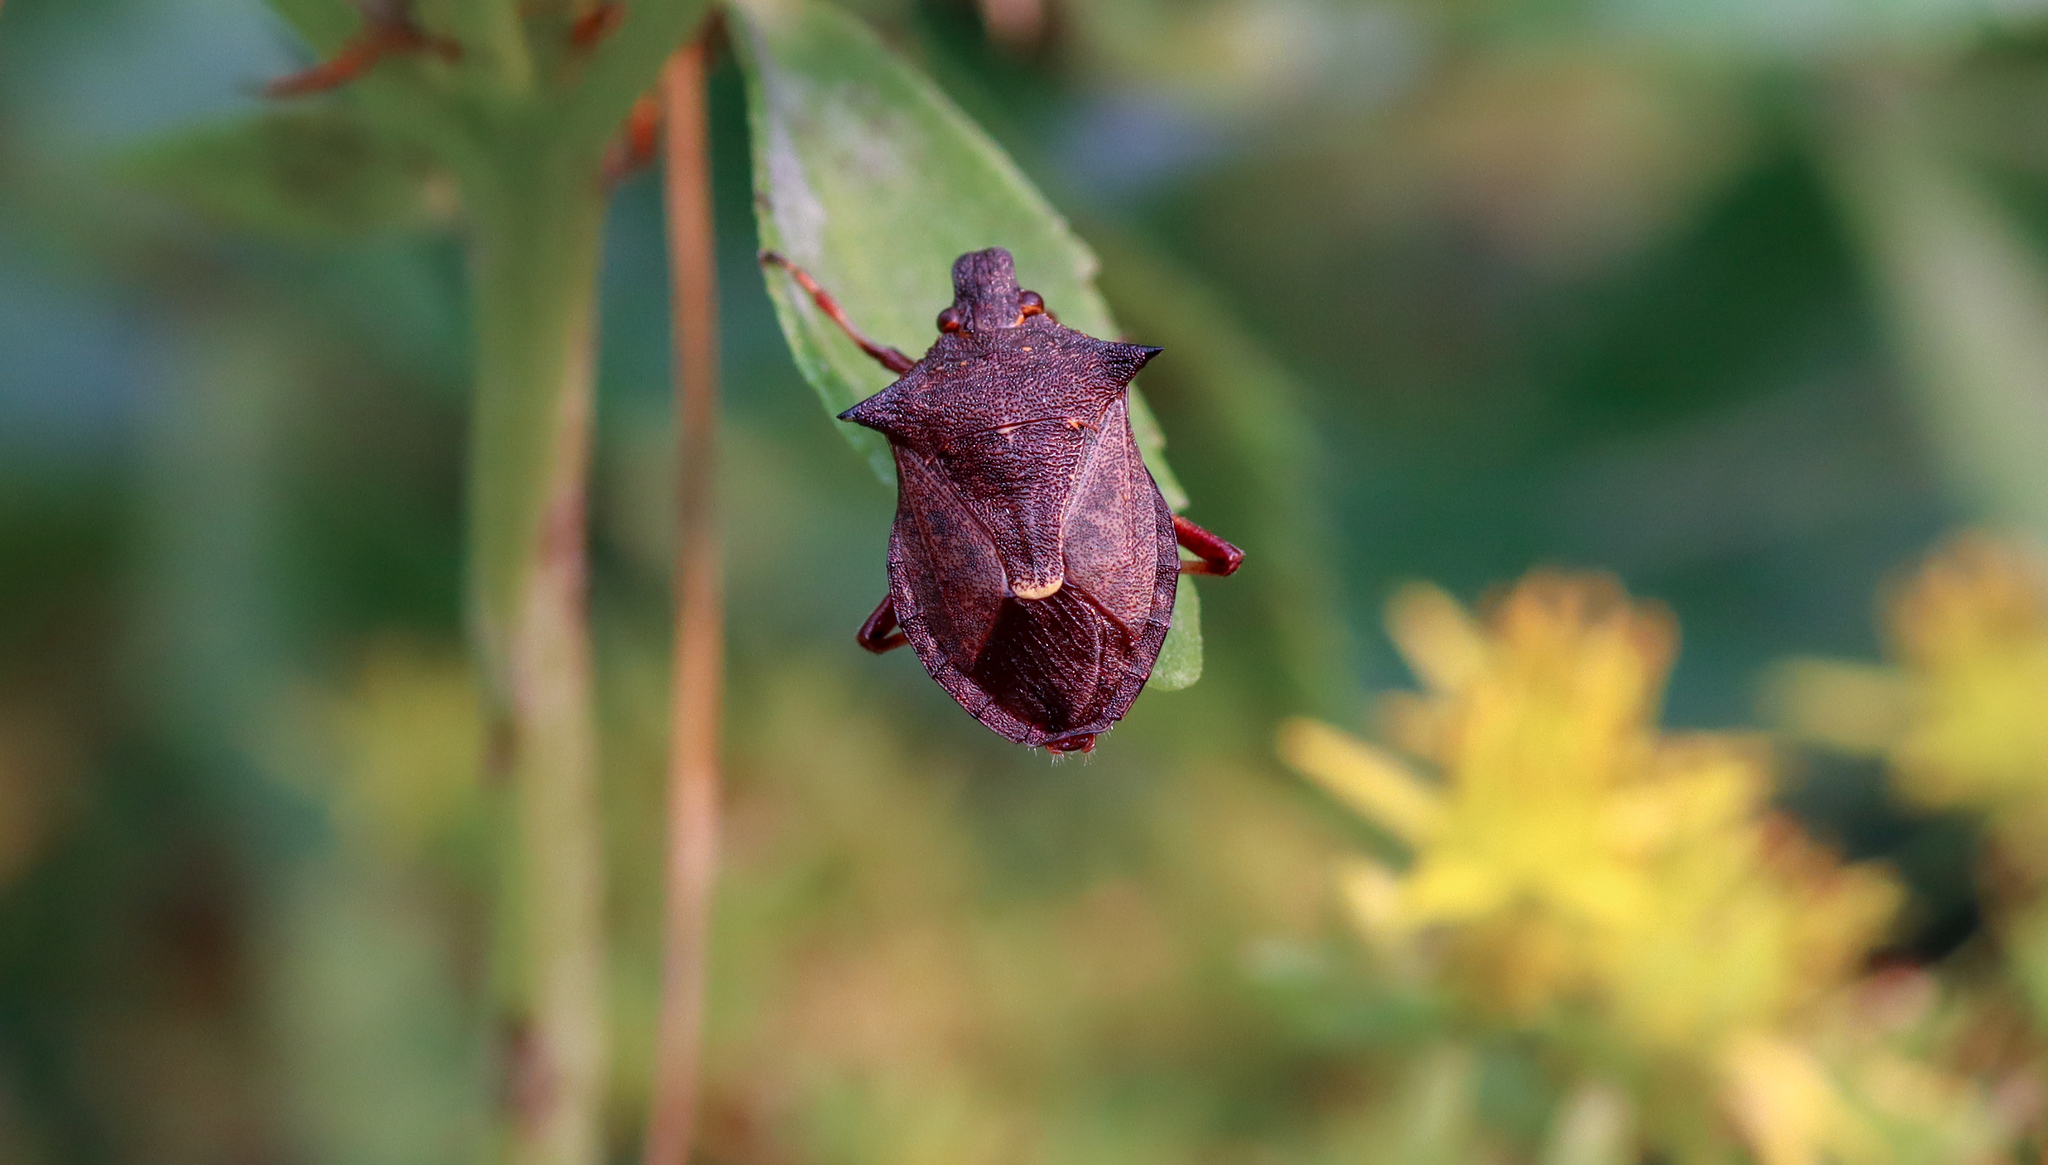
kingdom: Animalia
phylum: Arthropoda
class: Insecta
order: Hemiptera
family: Pentatomidae
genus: Picromerus
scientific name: Picromerus bidens
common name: Spiked shieldbug
